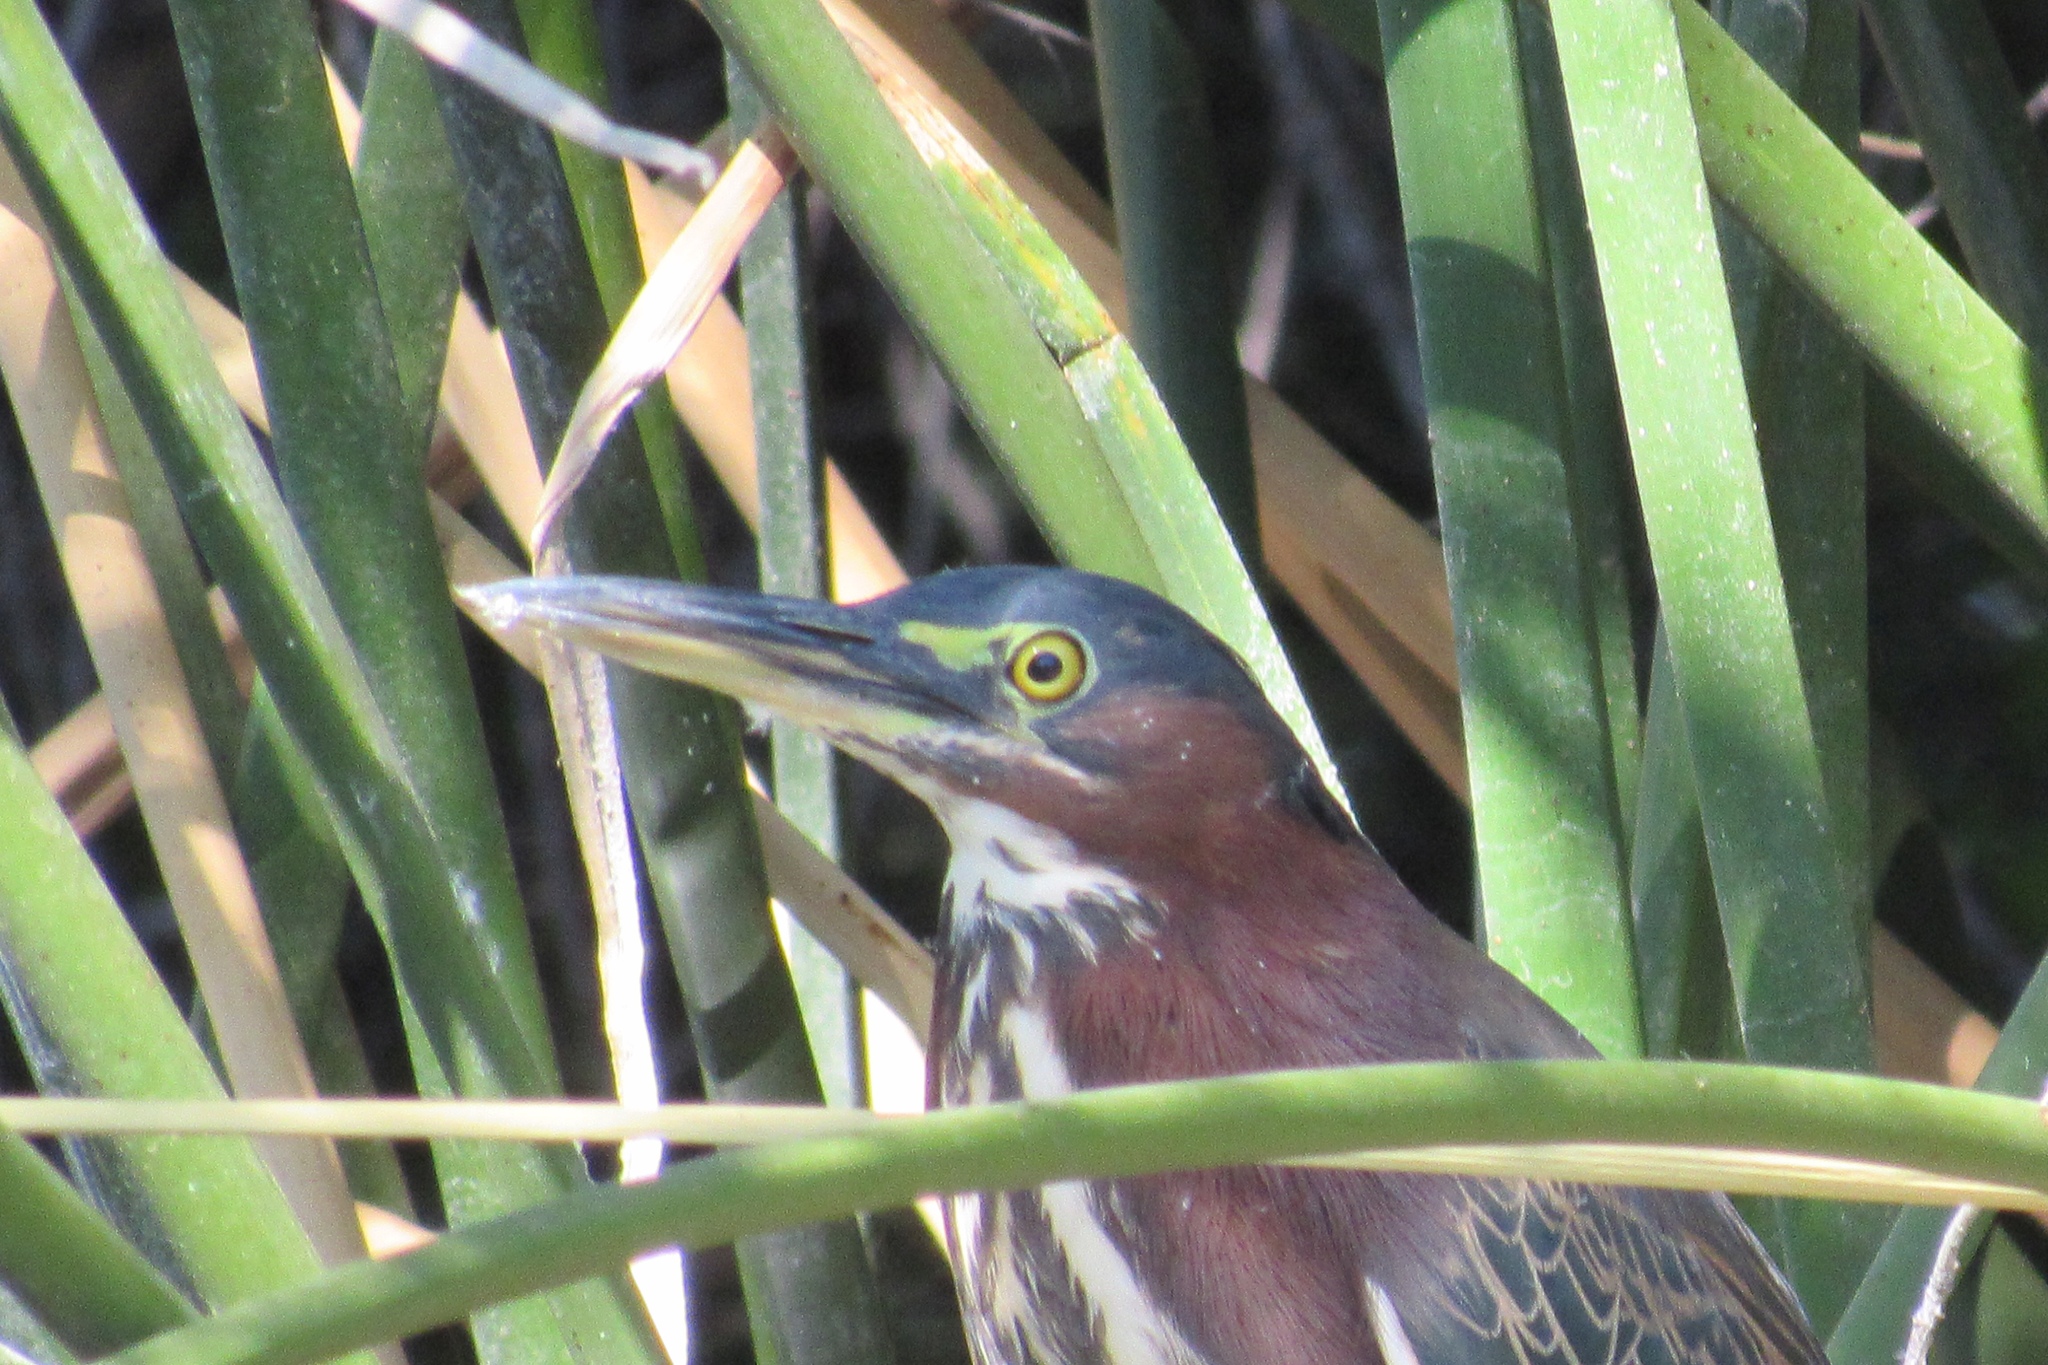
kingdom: Animalia
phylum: Chordata
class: Aves
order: Pelecaniformes
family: Ardeidae
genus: Butorides
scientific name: Butorides virescens
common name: Green heron
